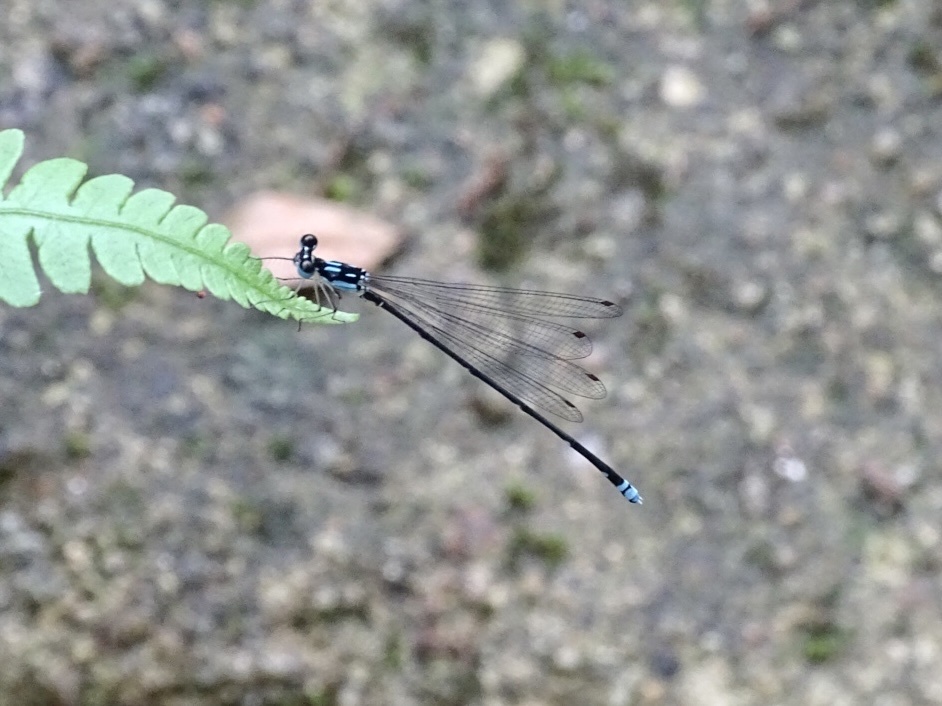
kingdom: Animalia
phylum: Arthropoda
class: Insecta
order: Odonata
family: Platycnemididae
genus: Coeliccia
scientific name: Coeliccia cyanomelas
